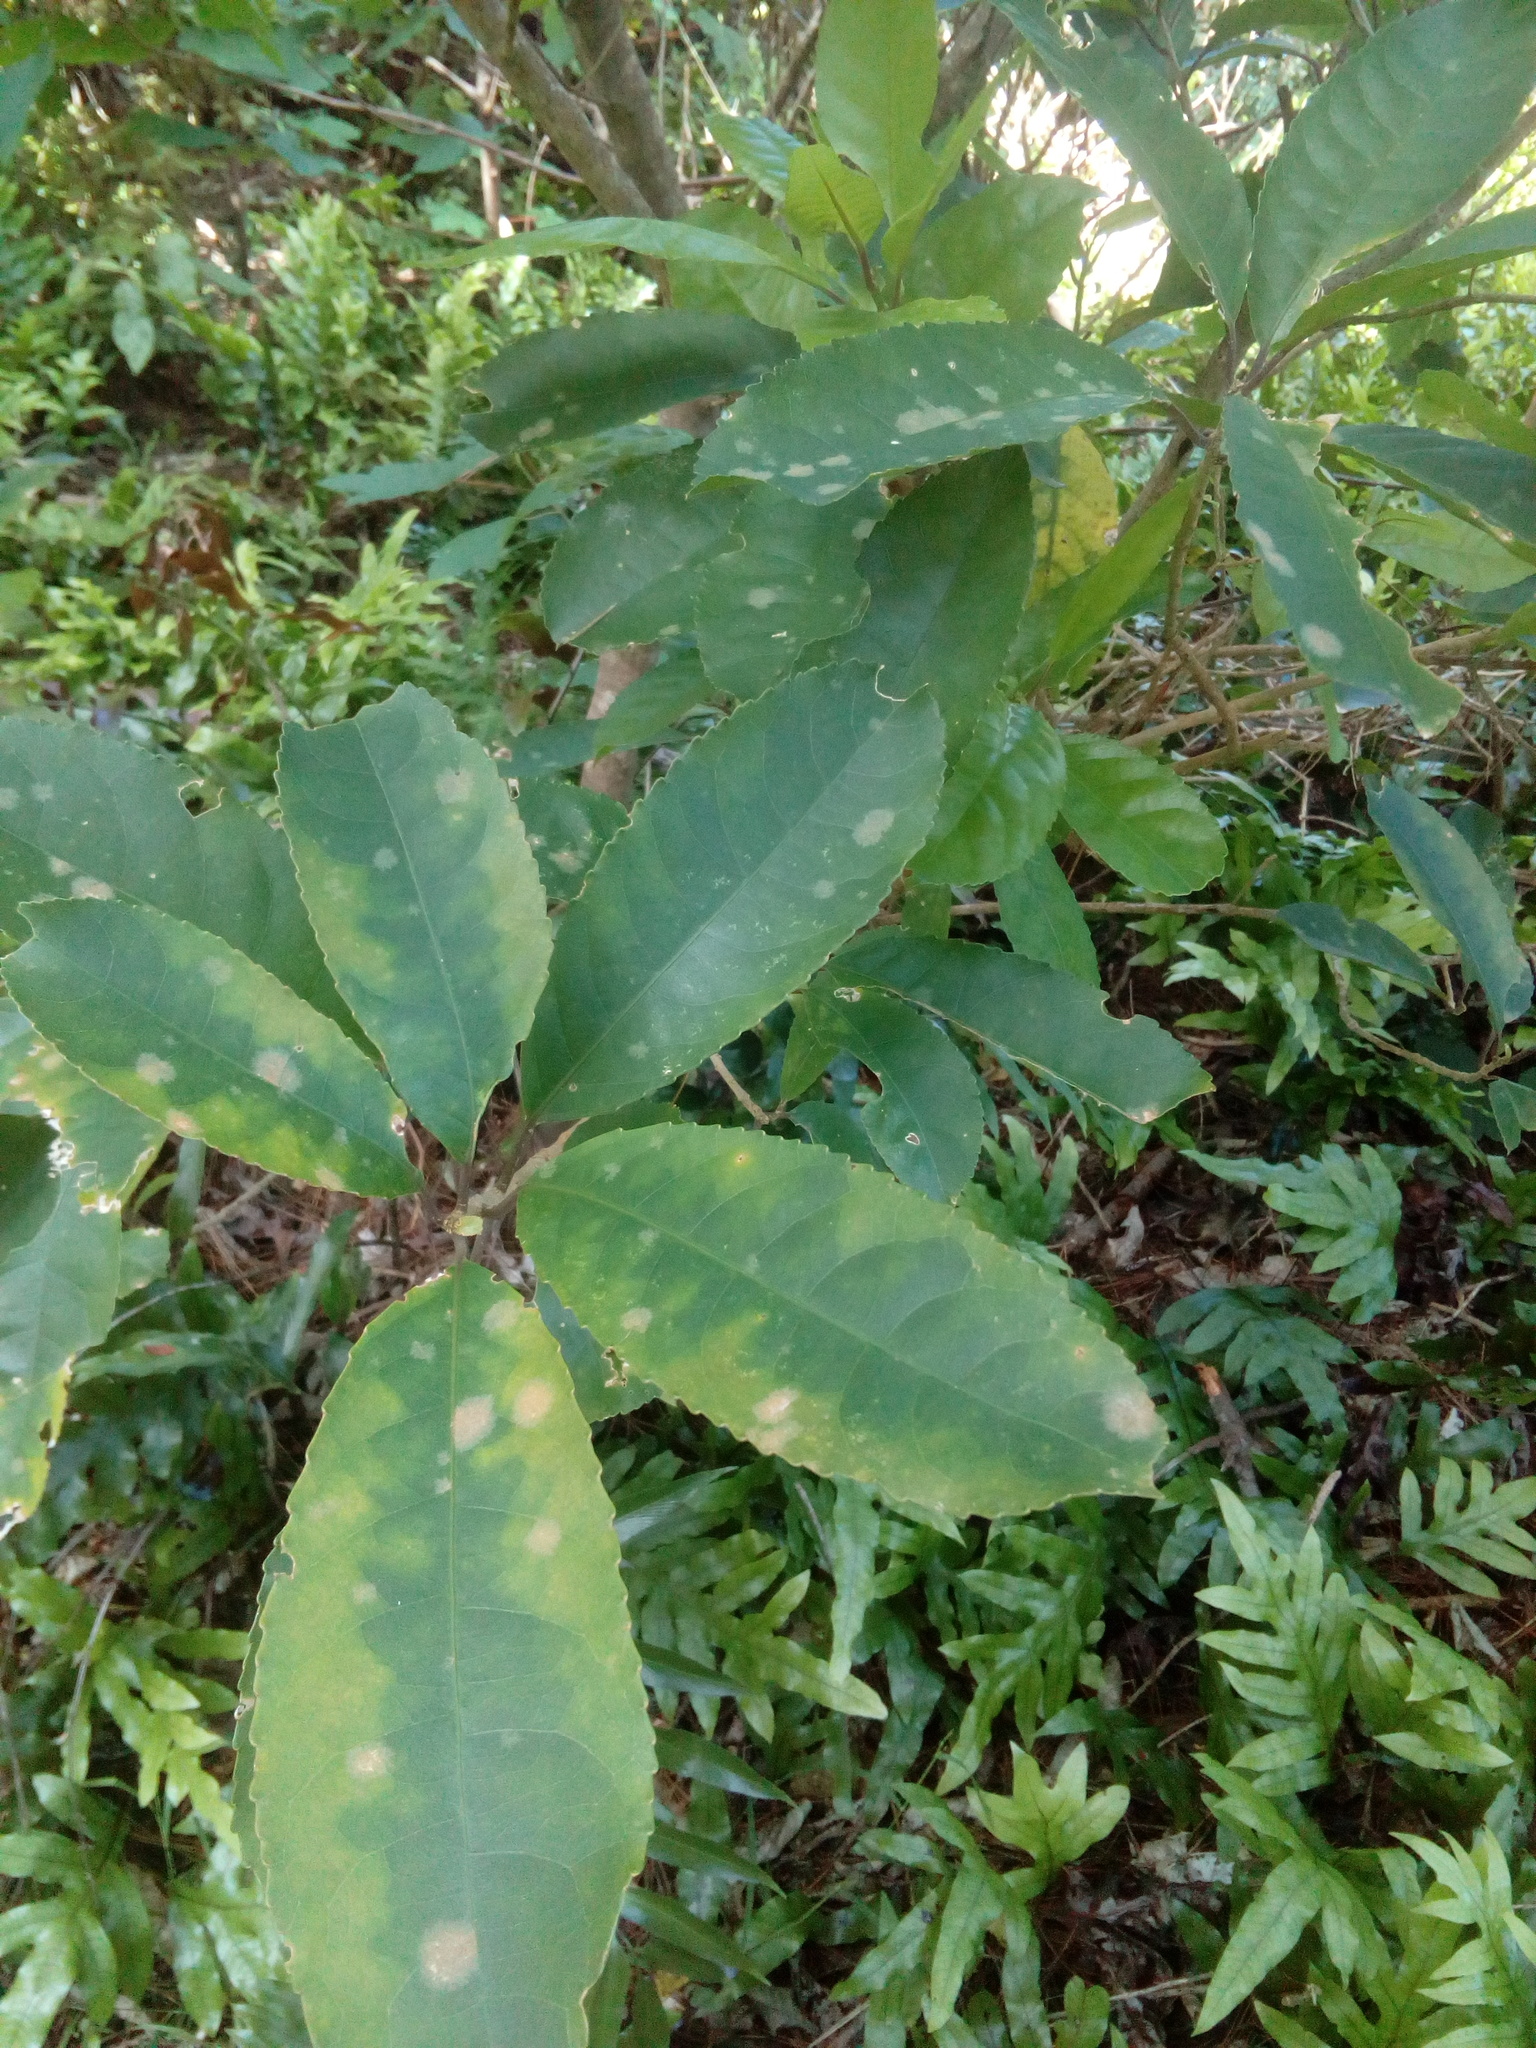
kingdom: Plantae
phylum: Tracheophyta
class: Magnoliopsida
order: Malpighiales
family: Violaceae
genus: Melicytus
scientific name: Melicytus ramiflorus
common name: Mahoe
